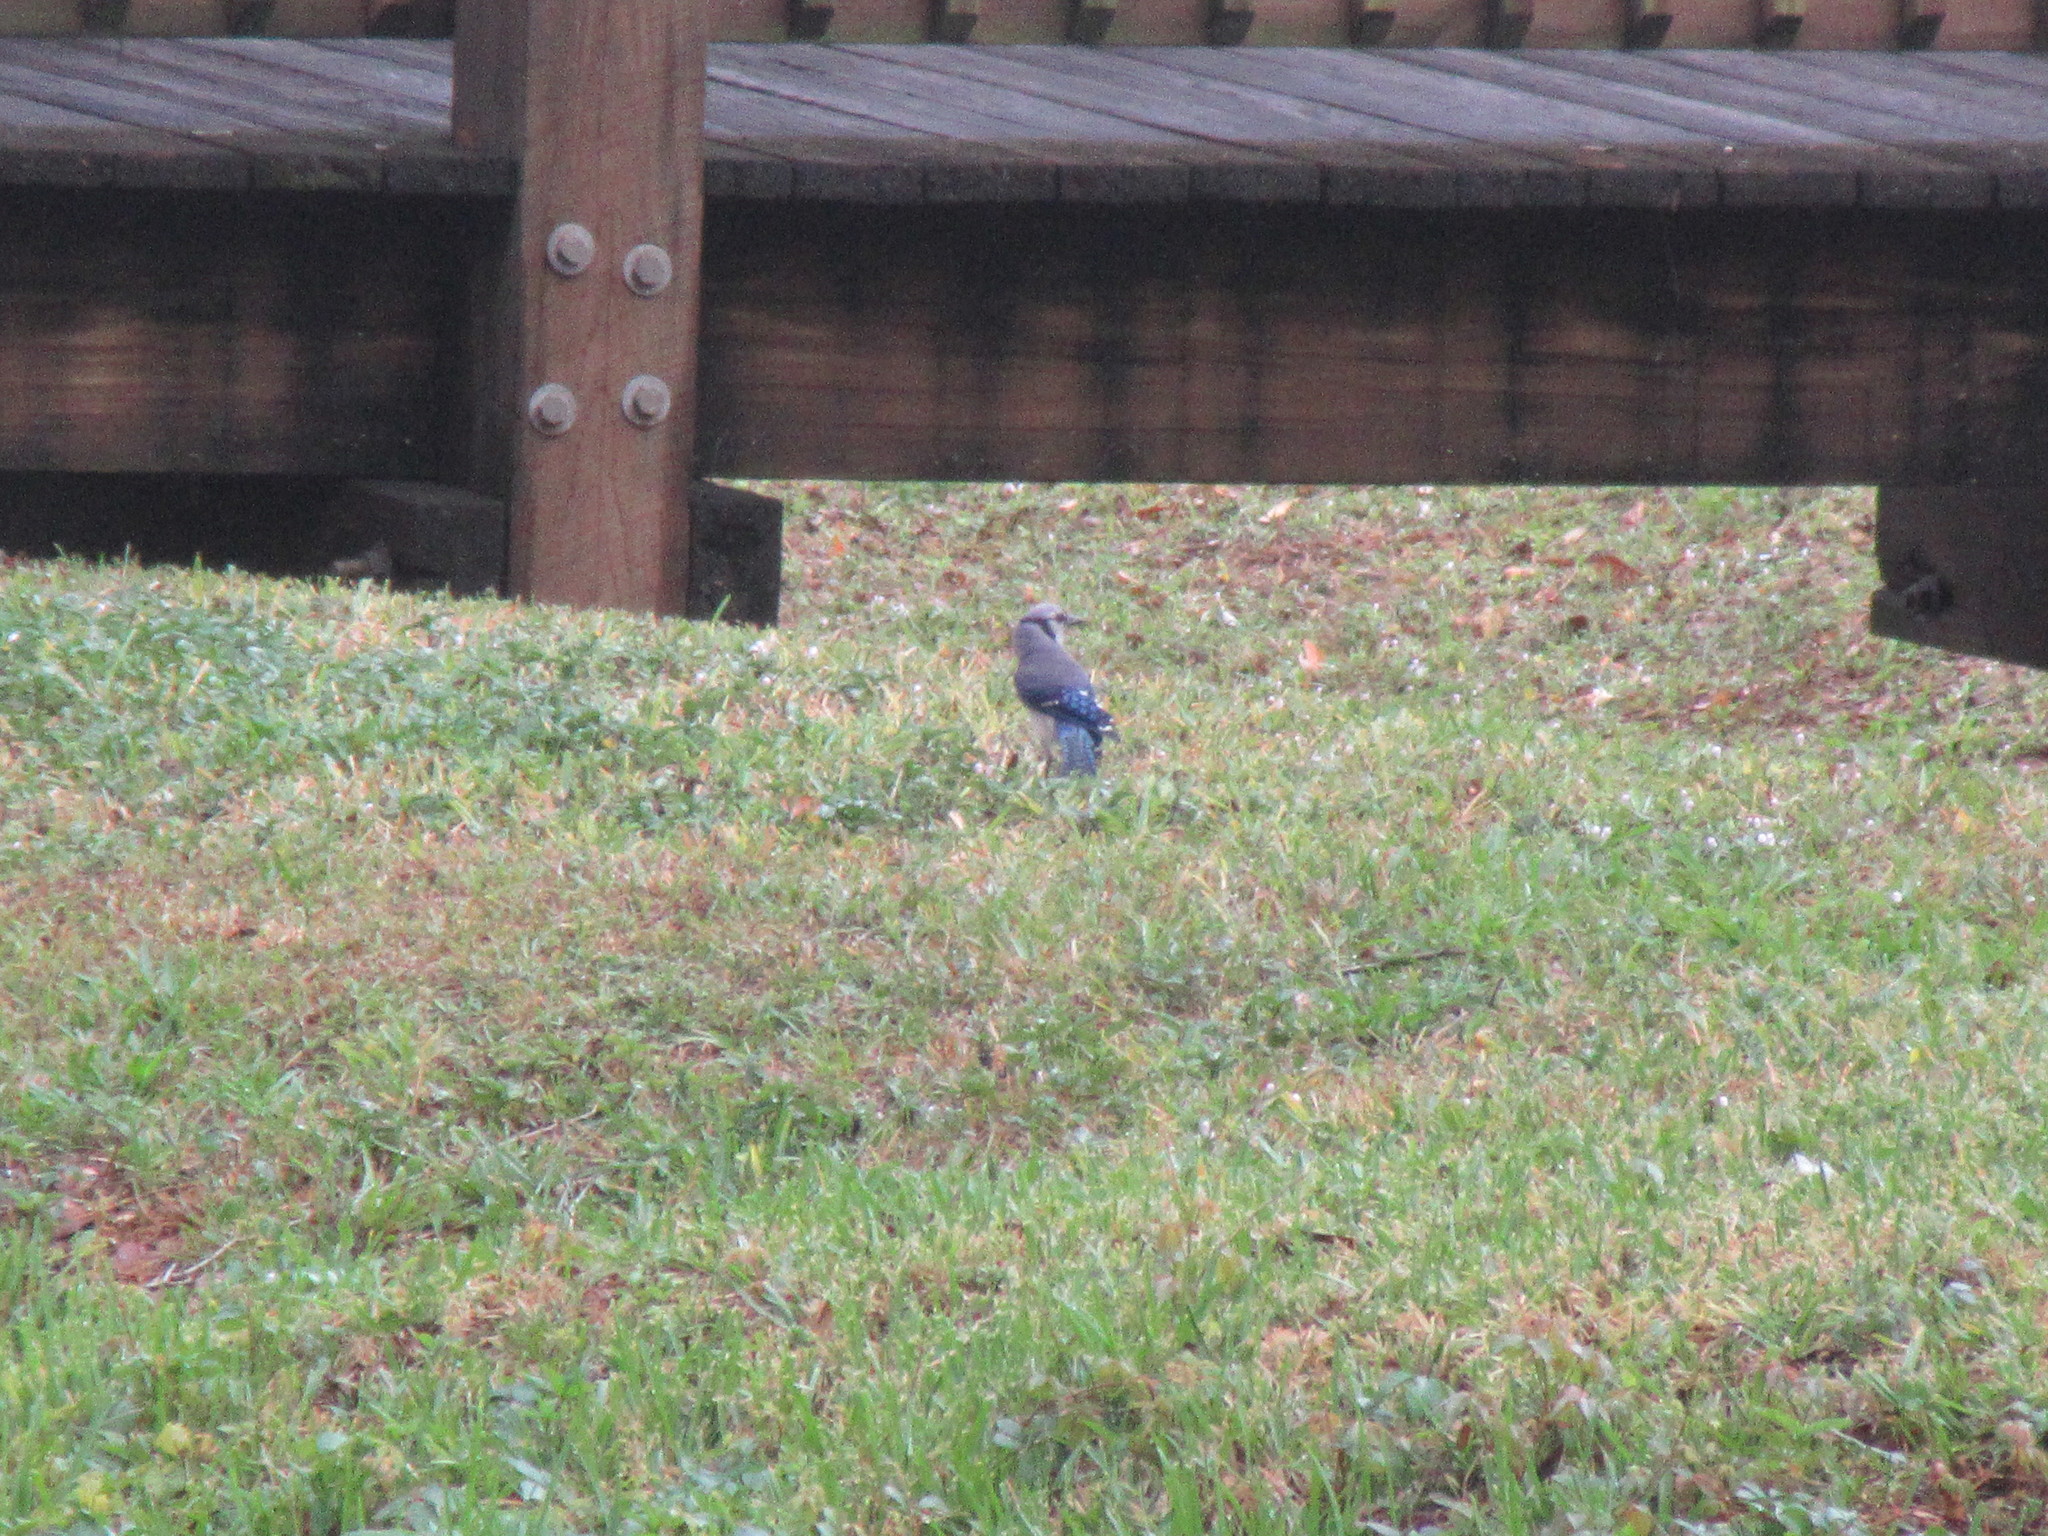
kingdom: Animalia
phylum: Chordata
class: Aves
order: Passeriformes
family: Corvidae
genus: Cyanocitta
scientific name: Cyanocitta cristata
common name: Blue jay
